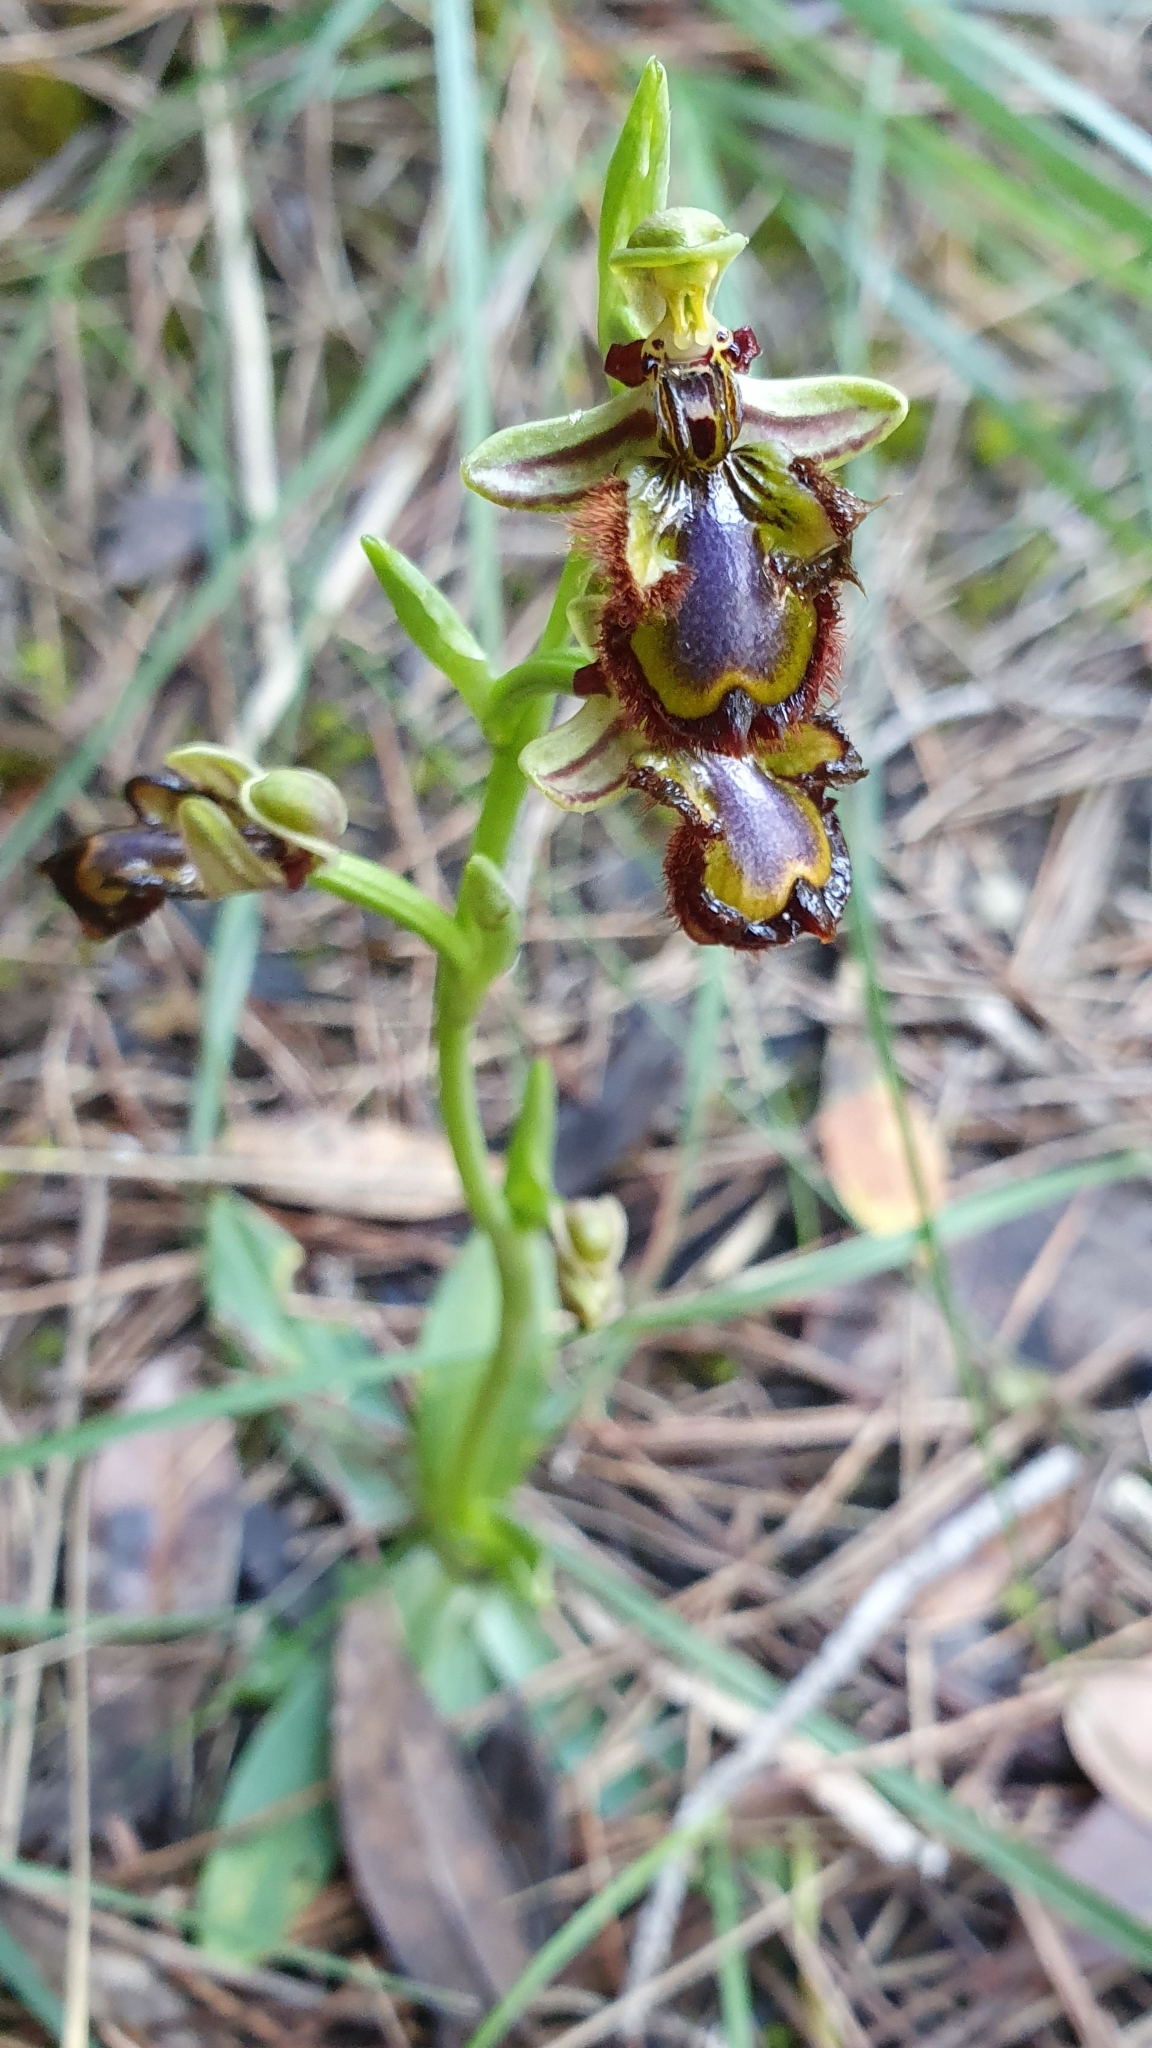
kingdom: Plantae
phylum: Tracheophyta
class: Liliopsida
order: Asparagales
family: Orchidaceae
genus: Ophrys
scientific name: Ophrys speculum
